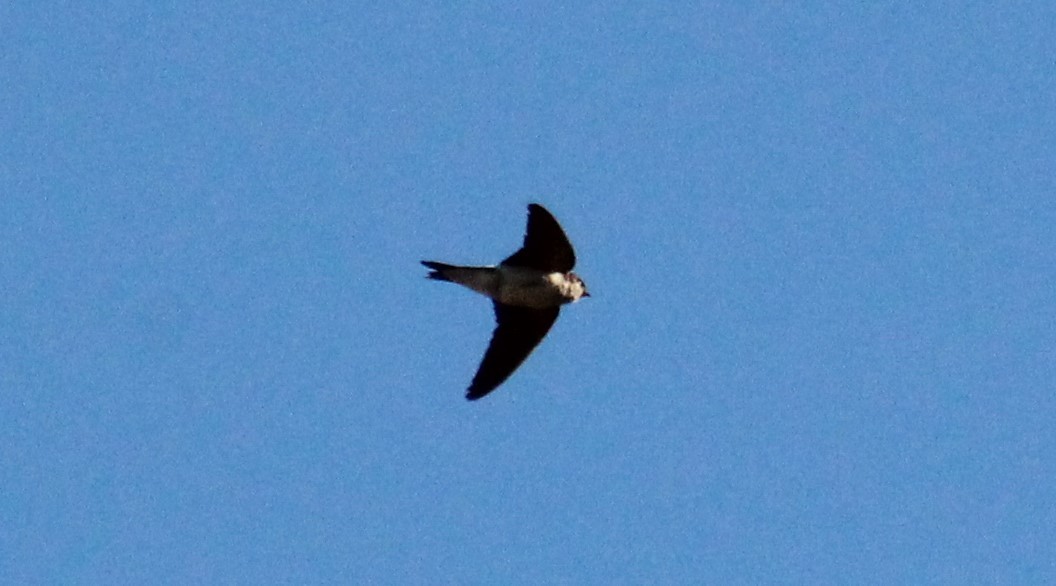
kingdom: Animalia
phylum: Chordata
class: Aves
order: Passeriformes
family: Hirundinidae
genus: Delichon
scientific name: Delichon urbicum
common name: Common house martin
